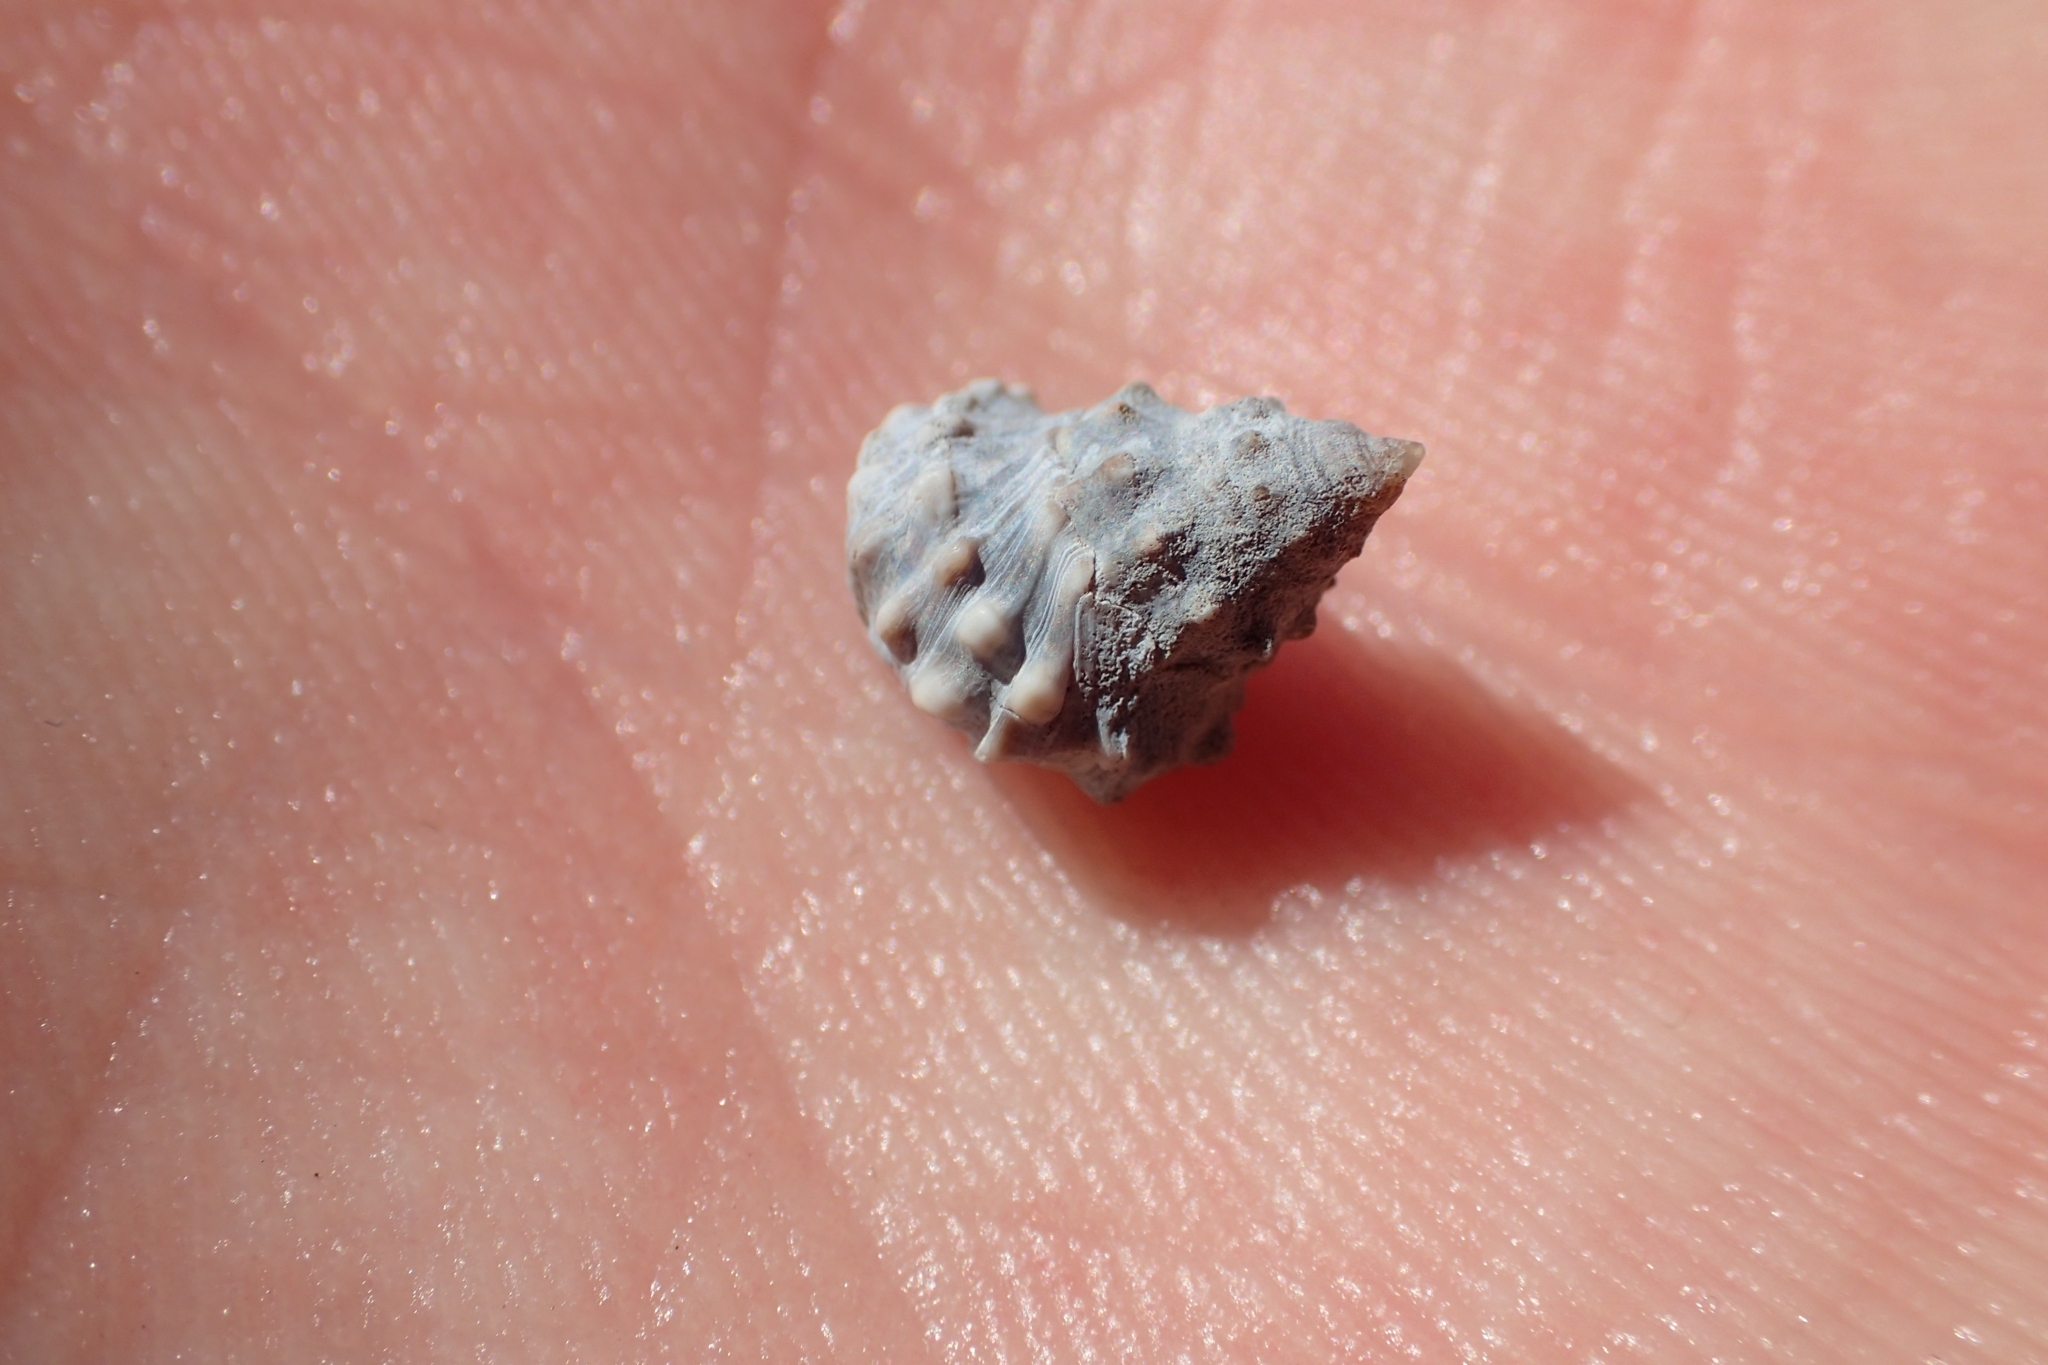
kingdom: Animalia
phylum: Mollusca
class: Gastropoda
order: Littorinimorpha
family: Littorinidae
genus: Nodilittorina
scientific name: Nodilittorina pyramidalis
